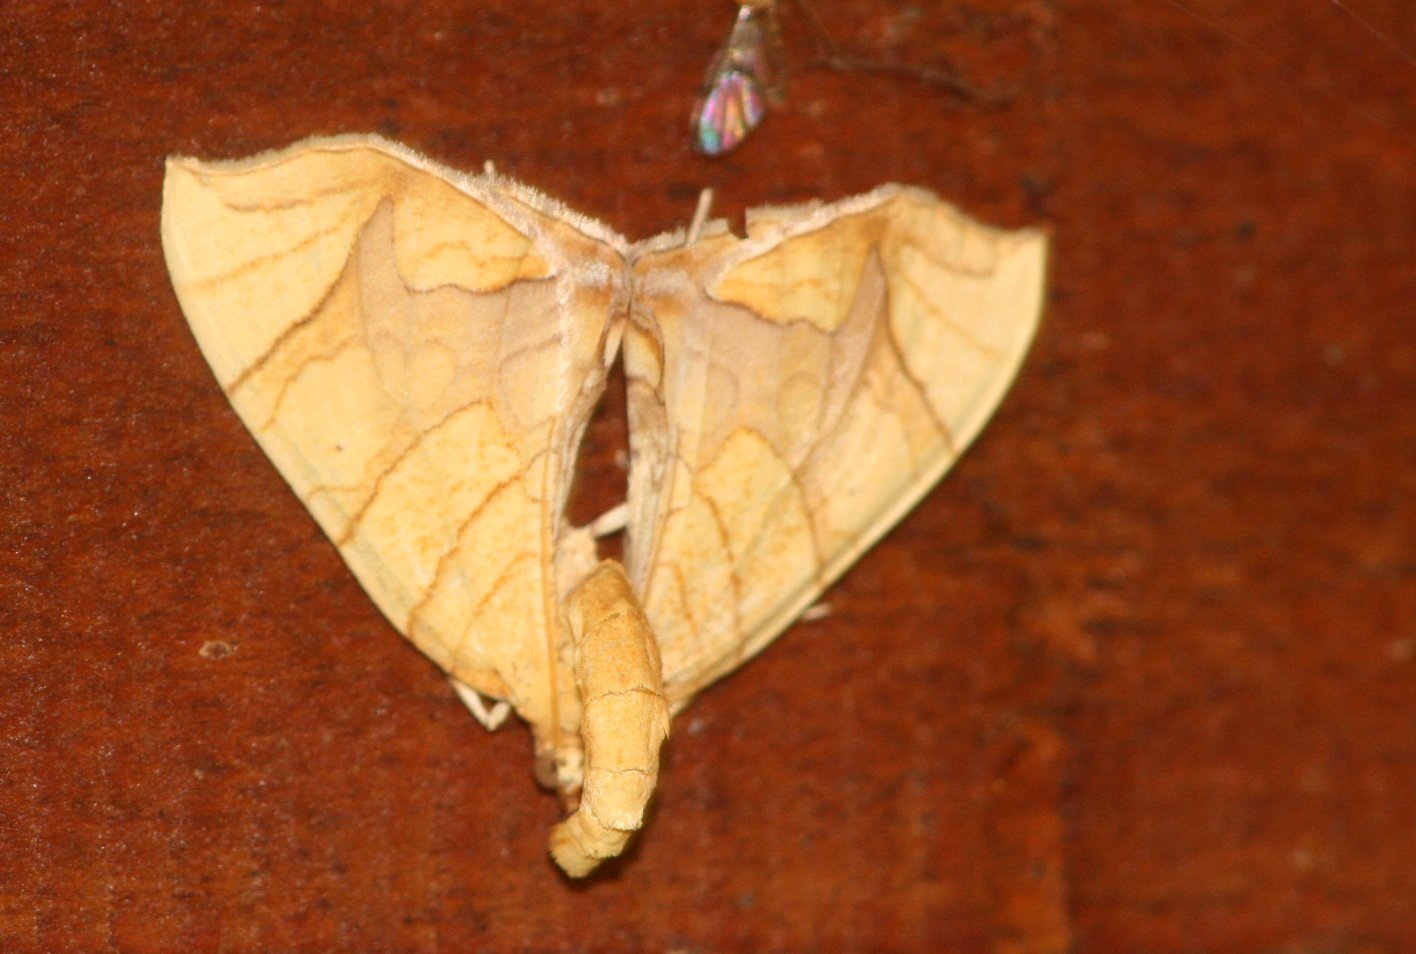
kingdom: Animalia
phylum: Arthropoda
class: Insecta
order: Lepidoptera
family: Geometridae
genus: Eulithis
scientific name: Eulithis
